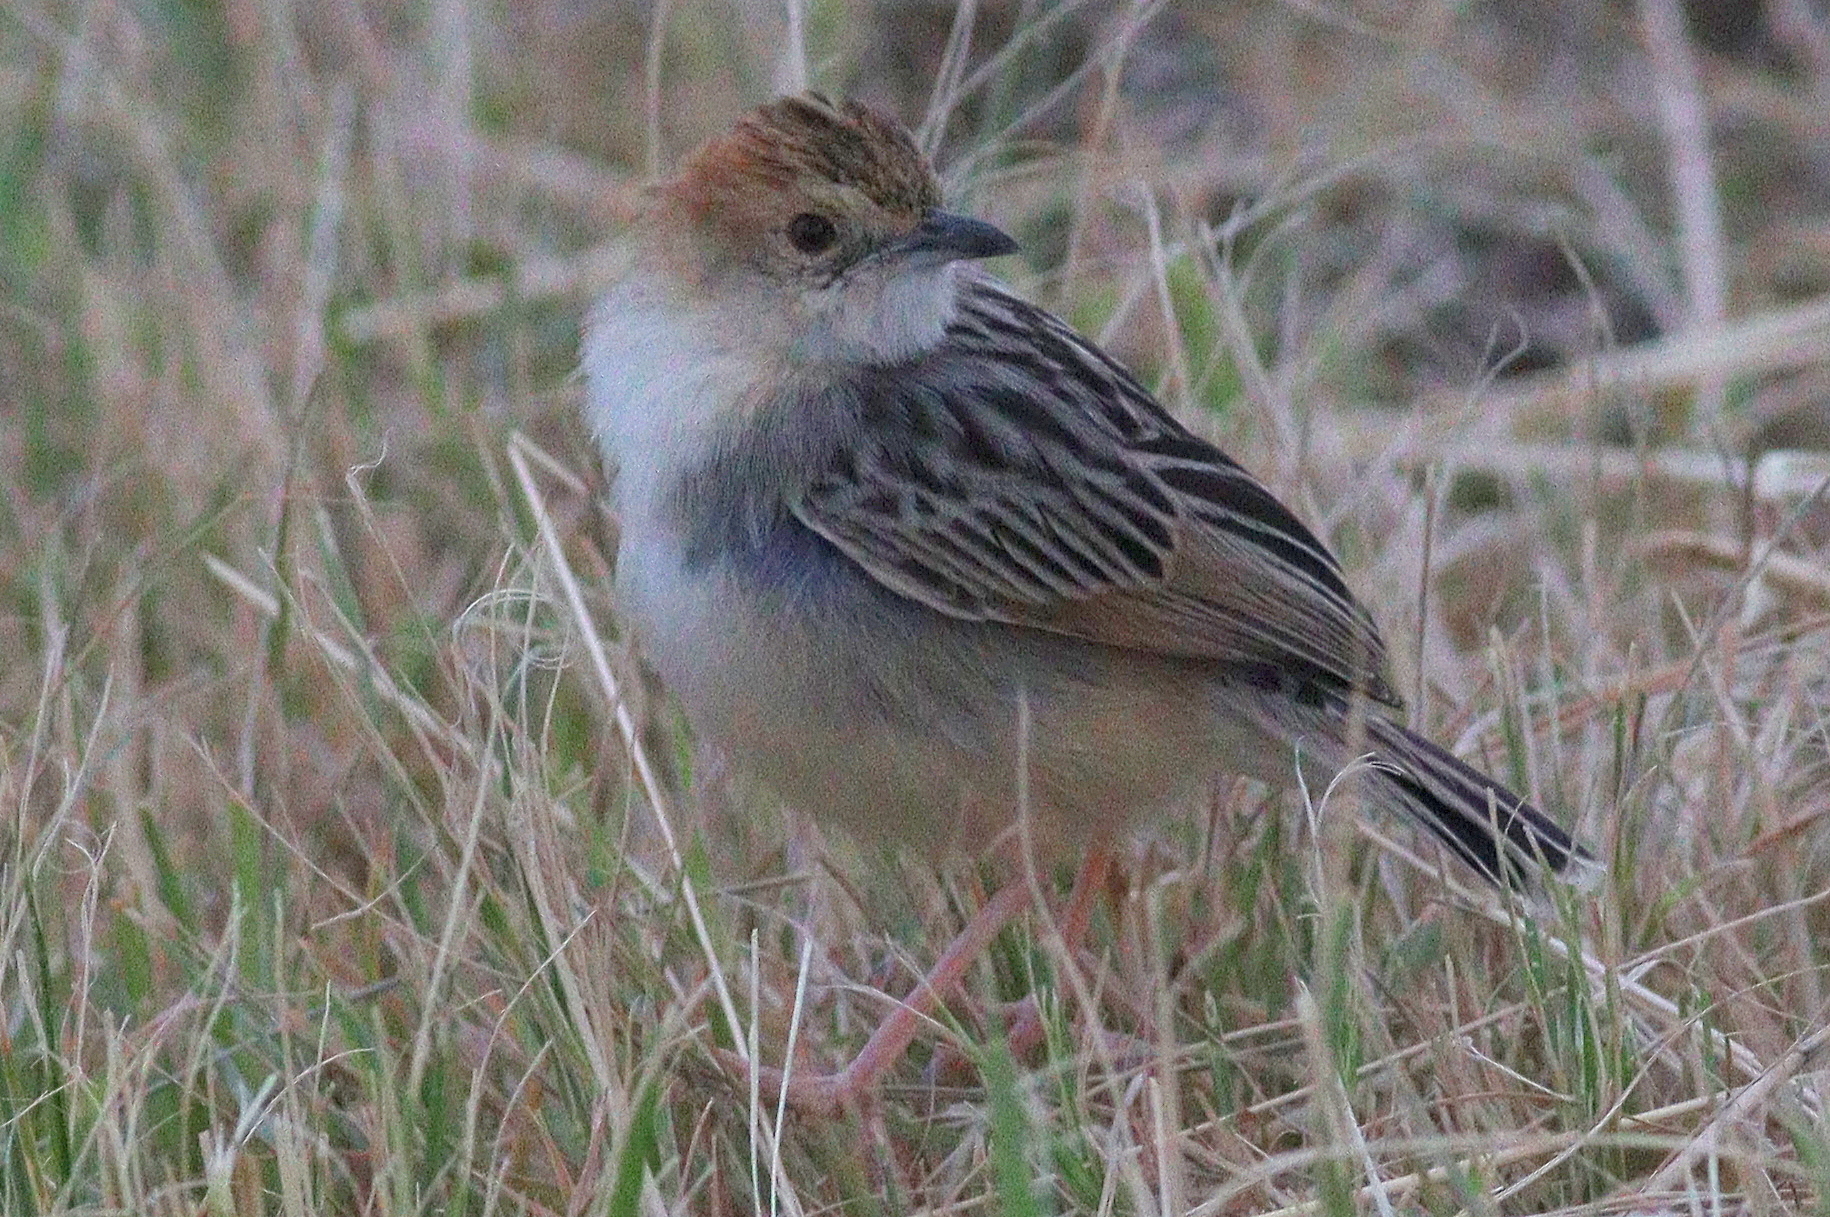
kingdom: Animalia
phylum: Chordata
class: Aves
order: Passeriformes
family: Cisticolidae
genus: Cisticola
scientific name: Cisticola robustus
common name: Stout cisticola
